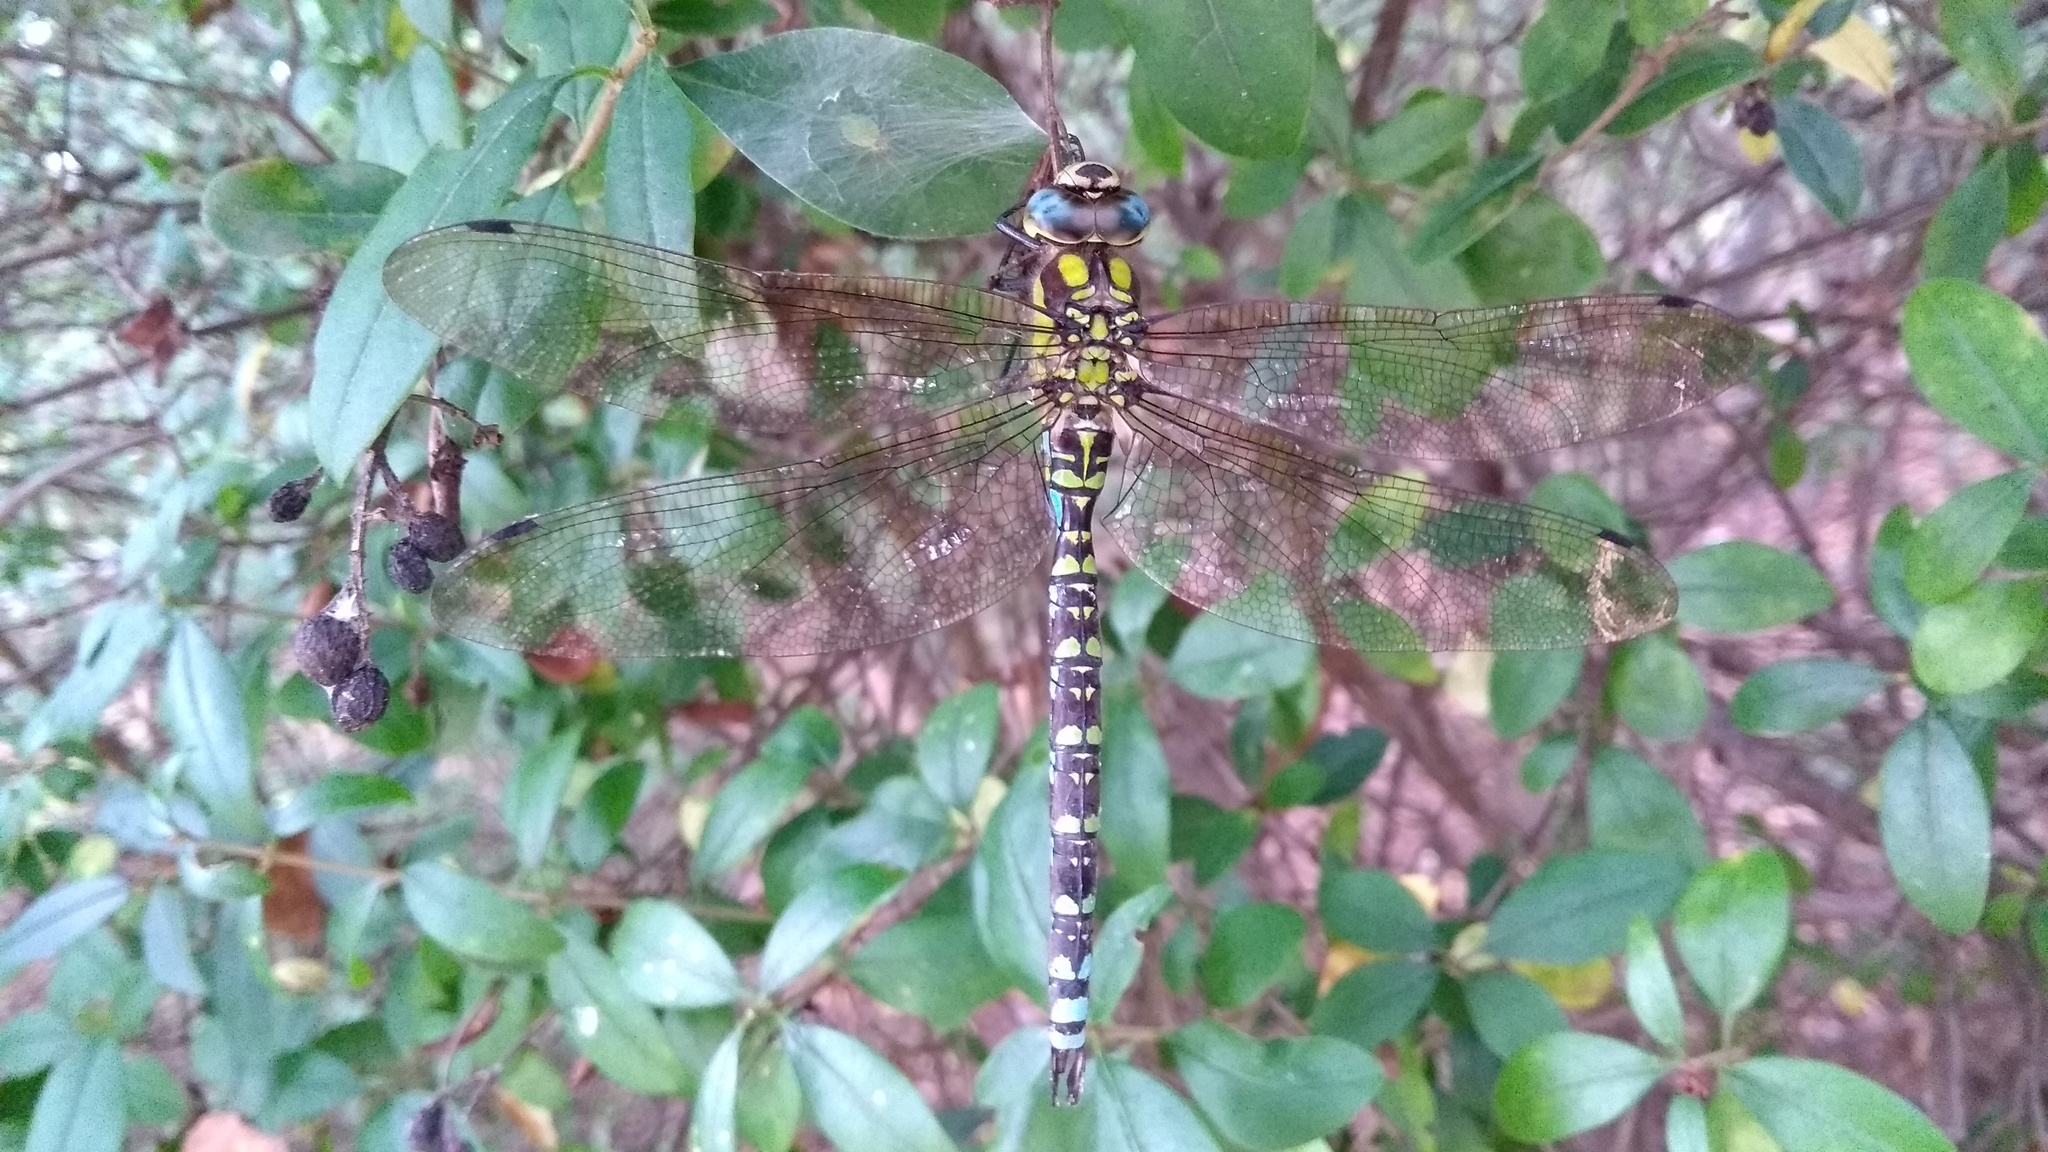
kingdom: Animalia
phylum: Arthropoda
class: Insecta
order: Odonata
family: Aeshnidae
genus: Aeshna
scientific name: Aeshna cyanea
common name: Southern hawker
